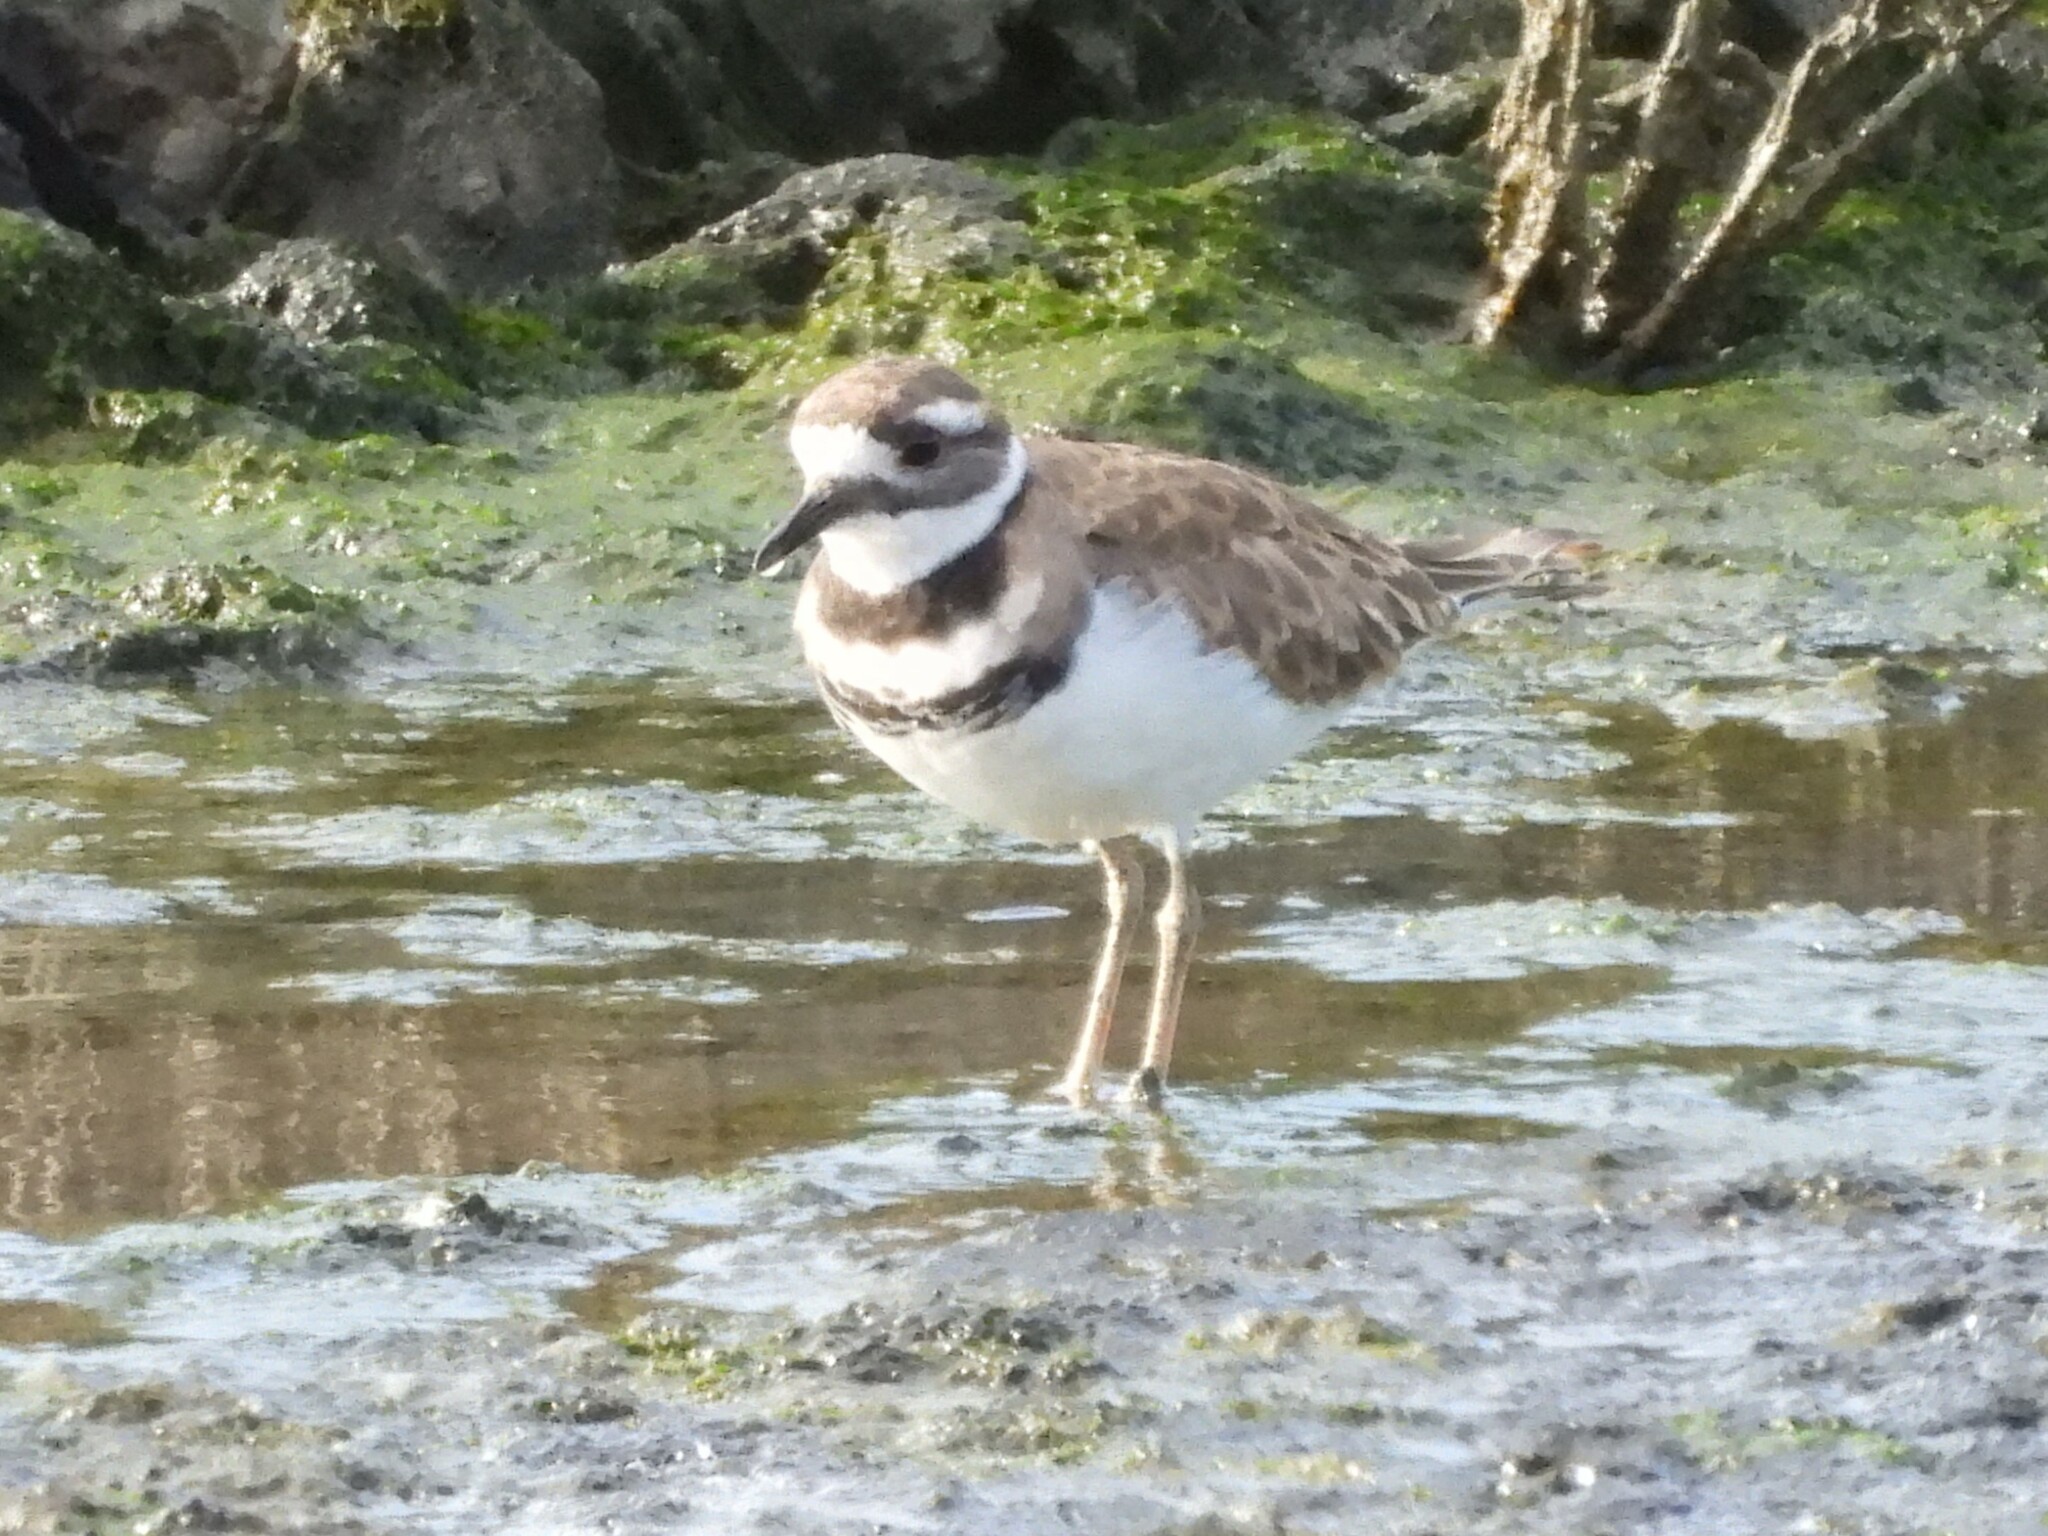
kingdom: Animalia
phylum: Chordata
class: Aves
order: Charadriiformes
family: Charadriidae
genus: Charadrius
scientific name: Charadrius vociferus
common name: Killdeer
